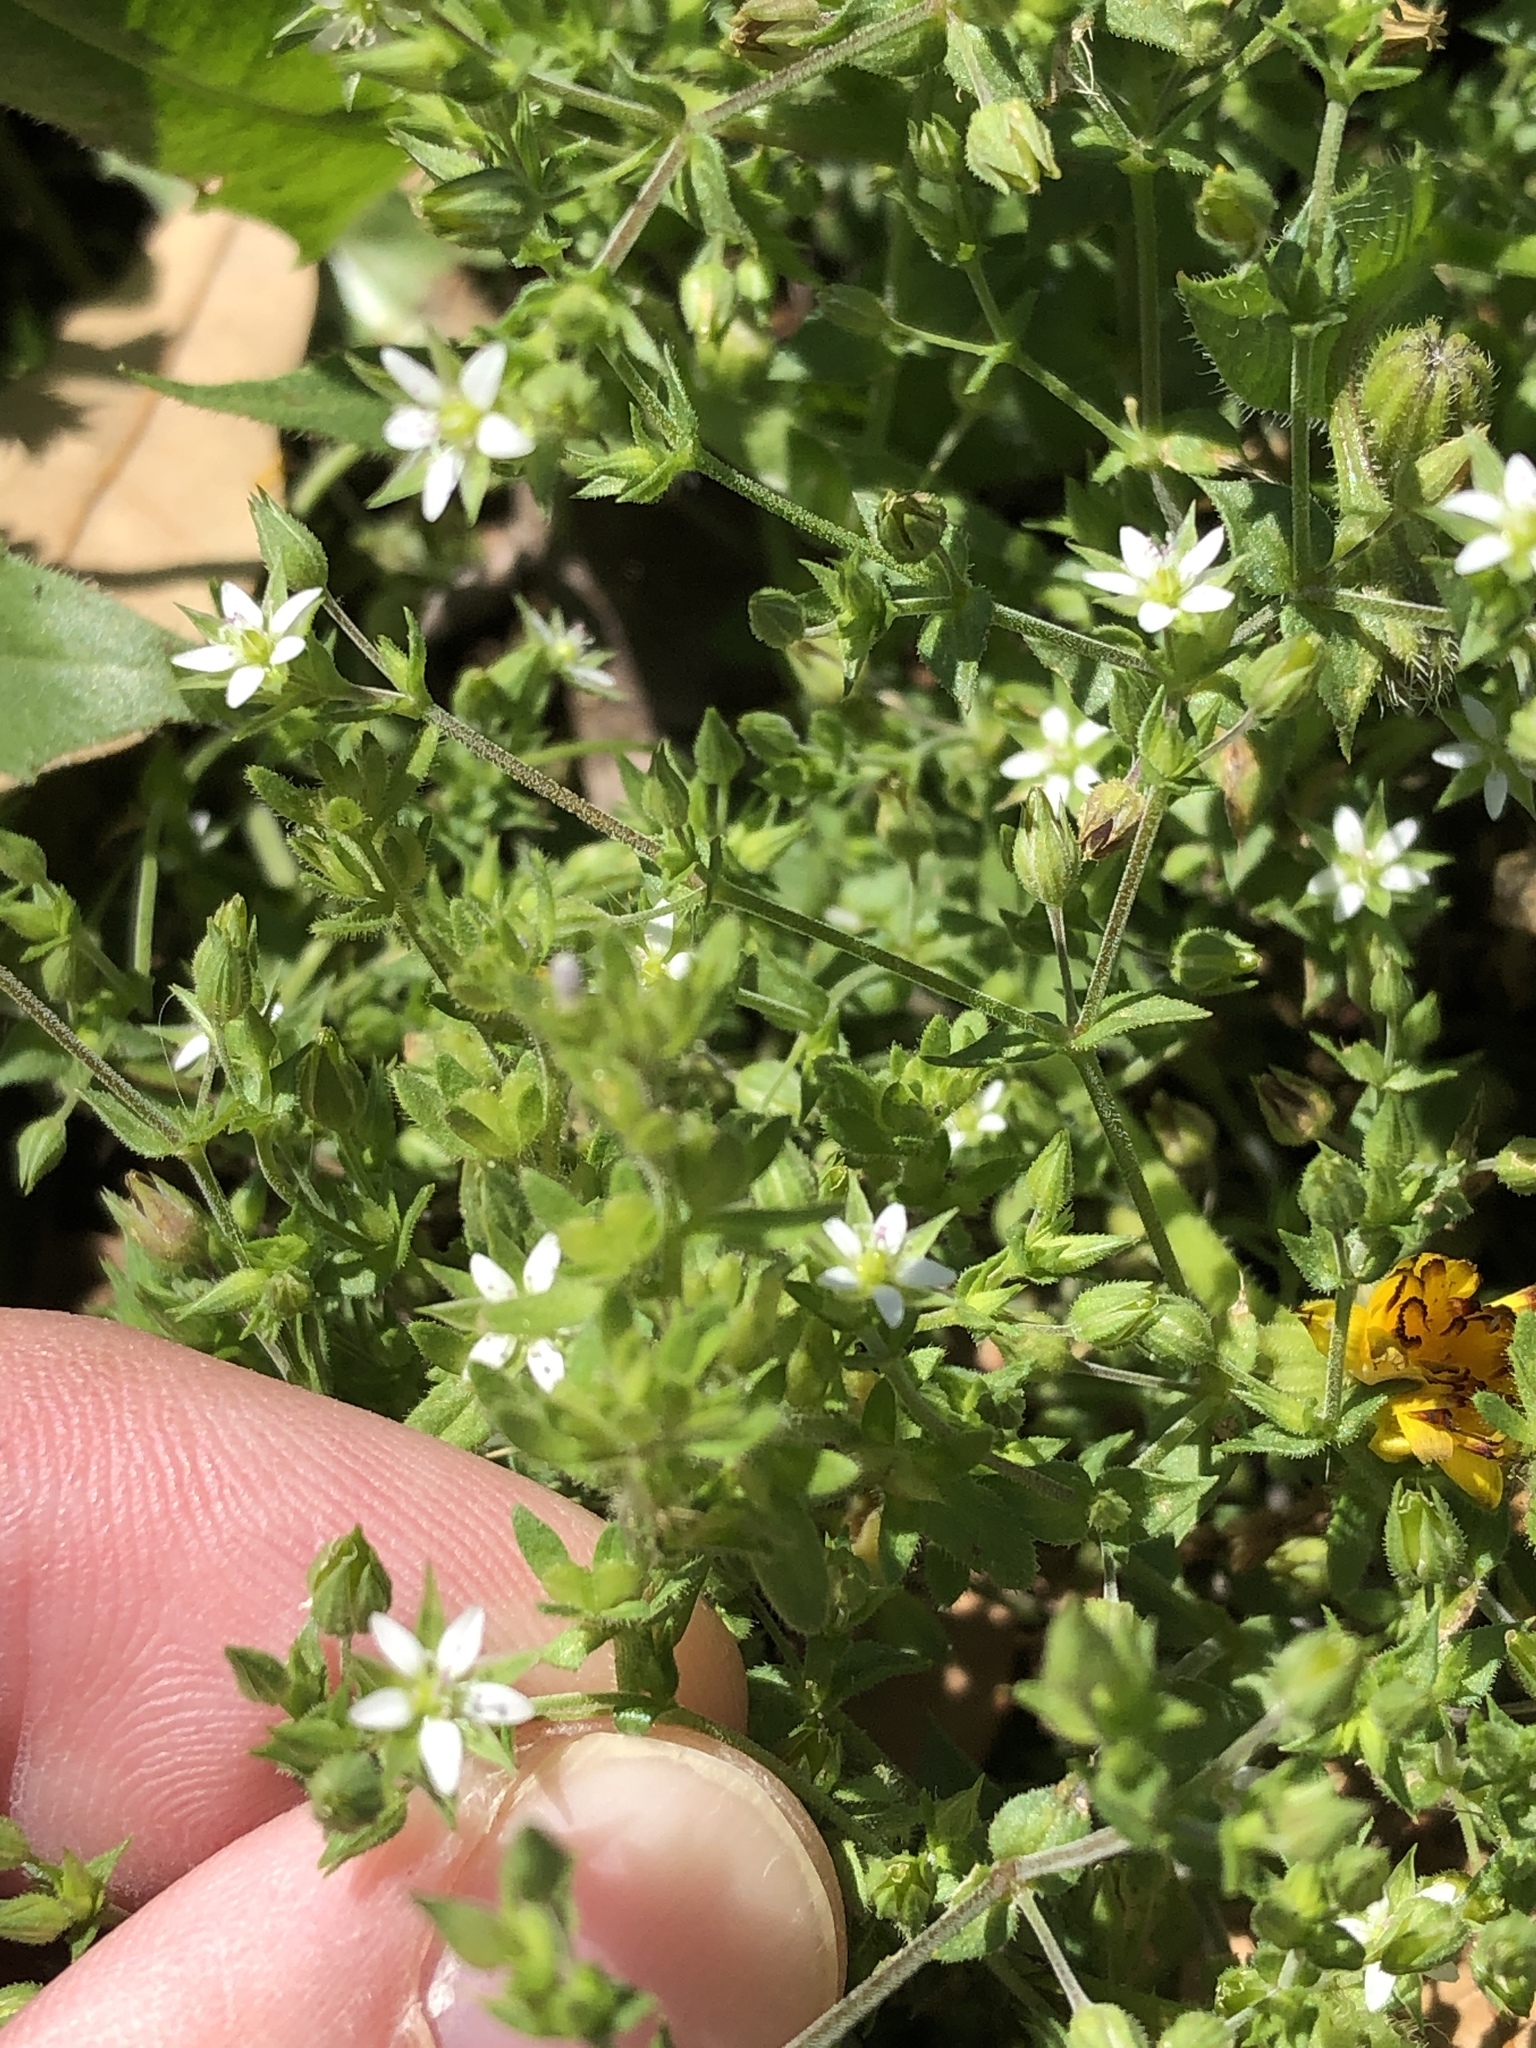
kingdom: Plantae
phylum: Tracheophyta
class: Magnoliopsida
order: Caryophyllales
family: Caryophyllaceae
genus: Arenaria
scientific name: Arenaria serpyllifolia
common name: Thyme-leaved sandwort
